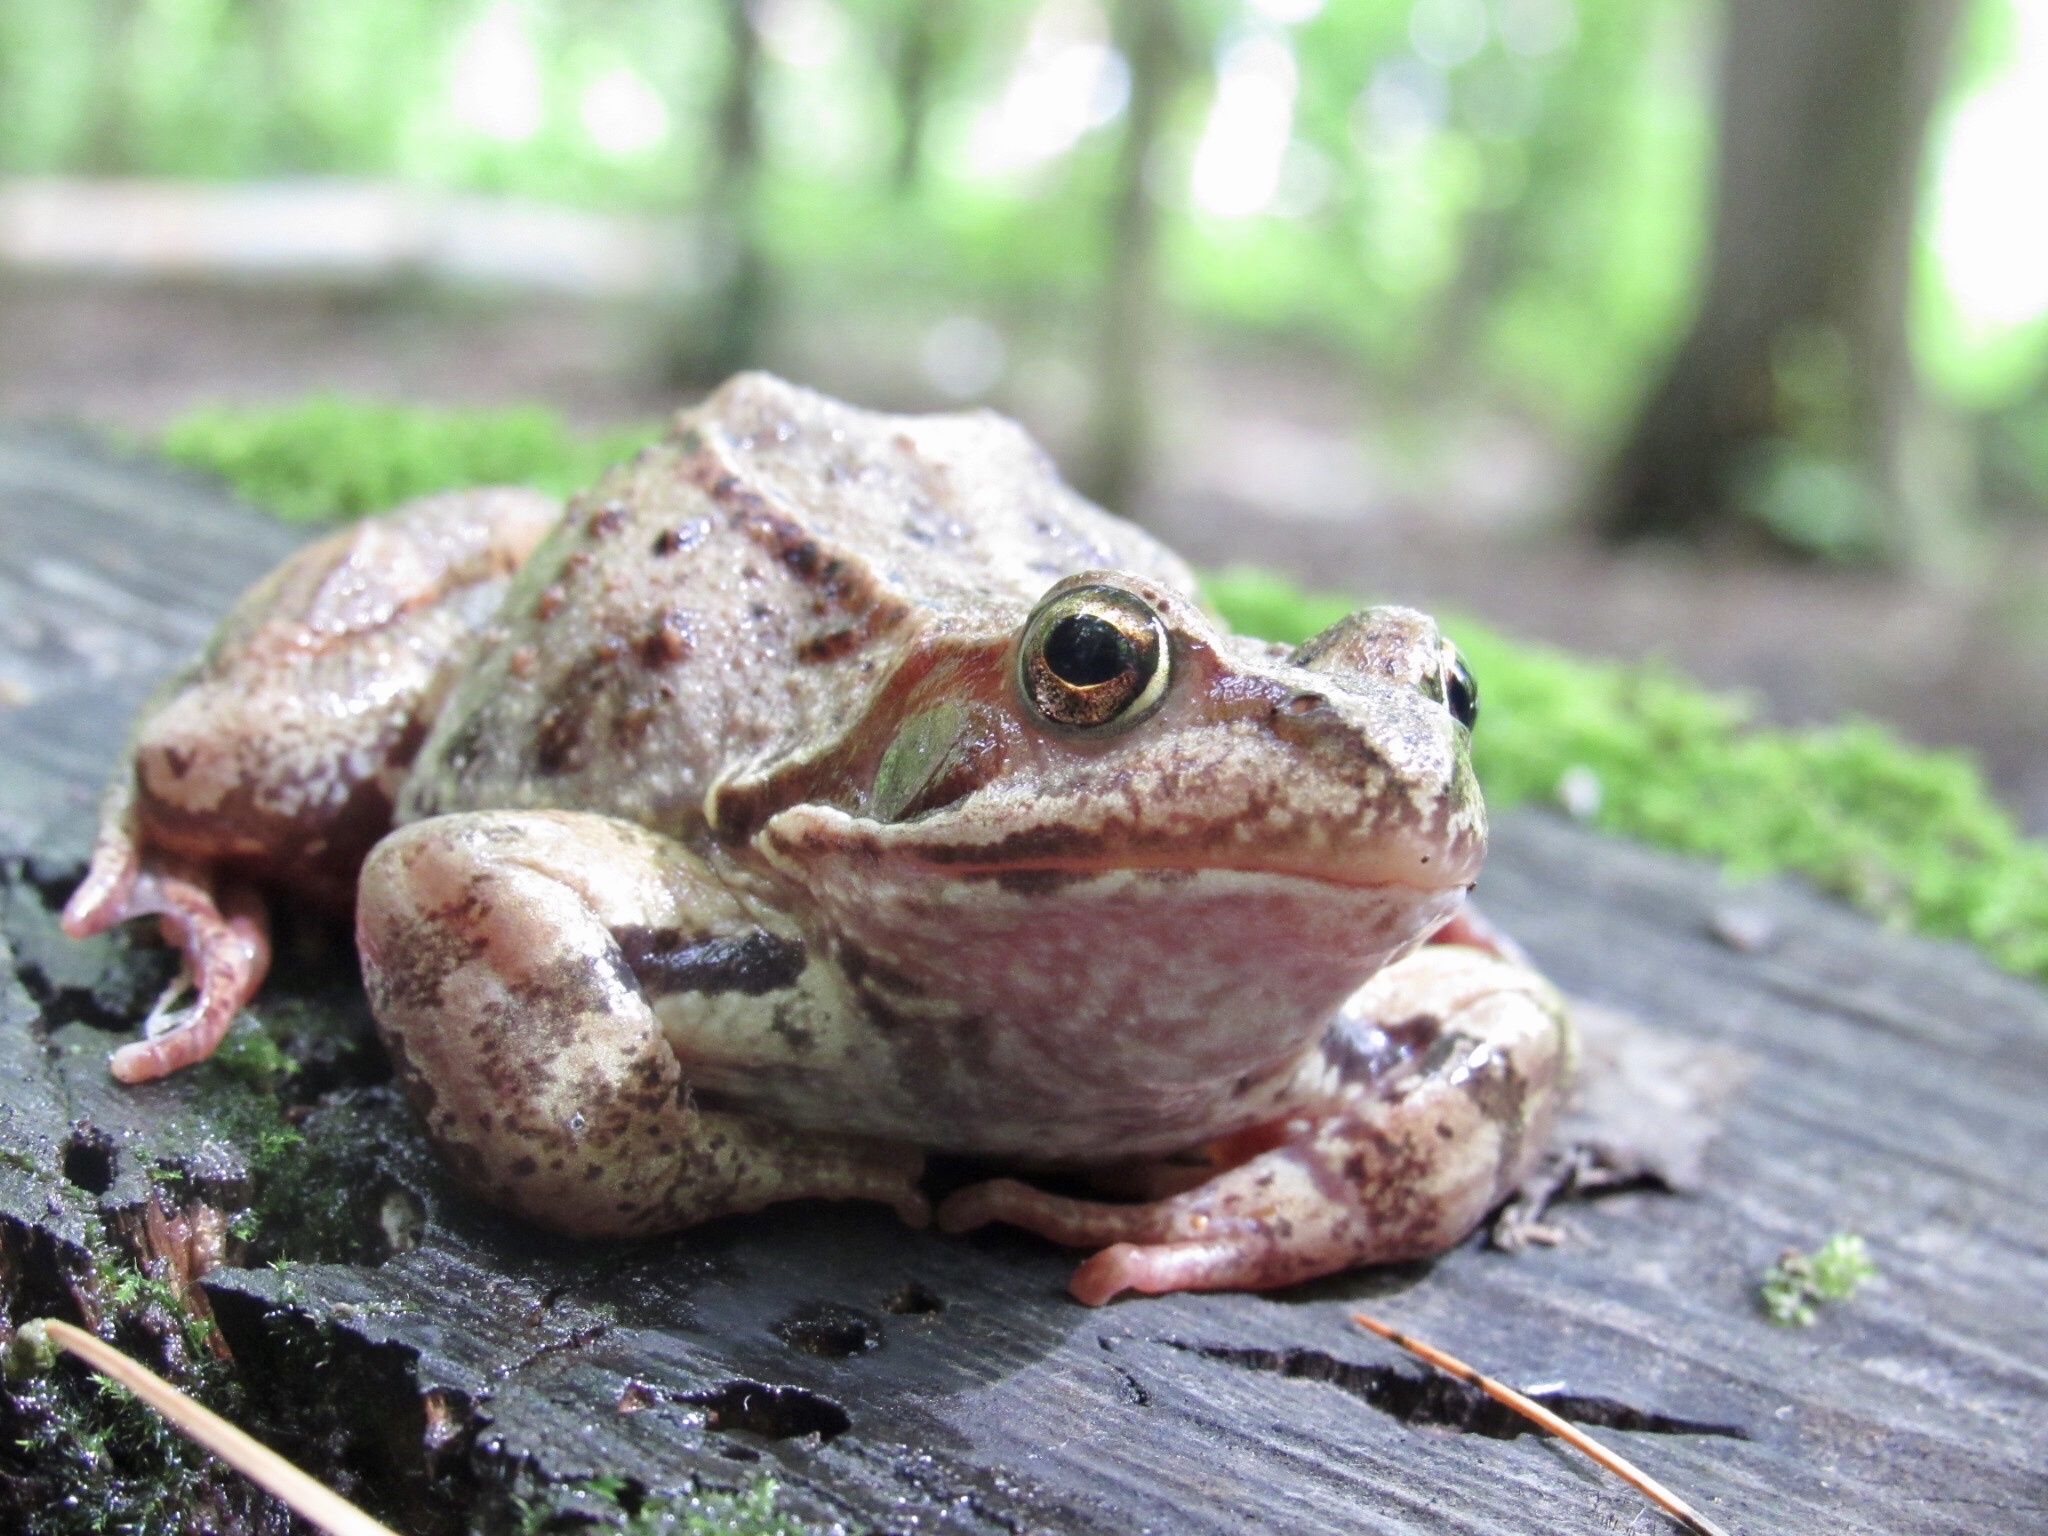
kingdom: Animalia
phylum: Chordata
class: Amphibia
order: Anura
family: Ranidae
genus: Rana
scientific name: Rana temporaria
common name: Common frog
